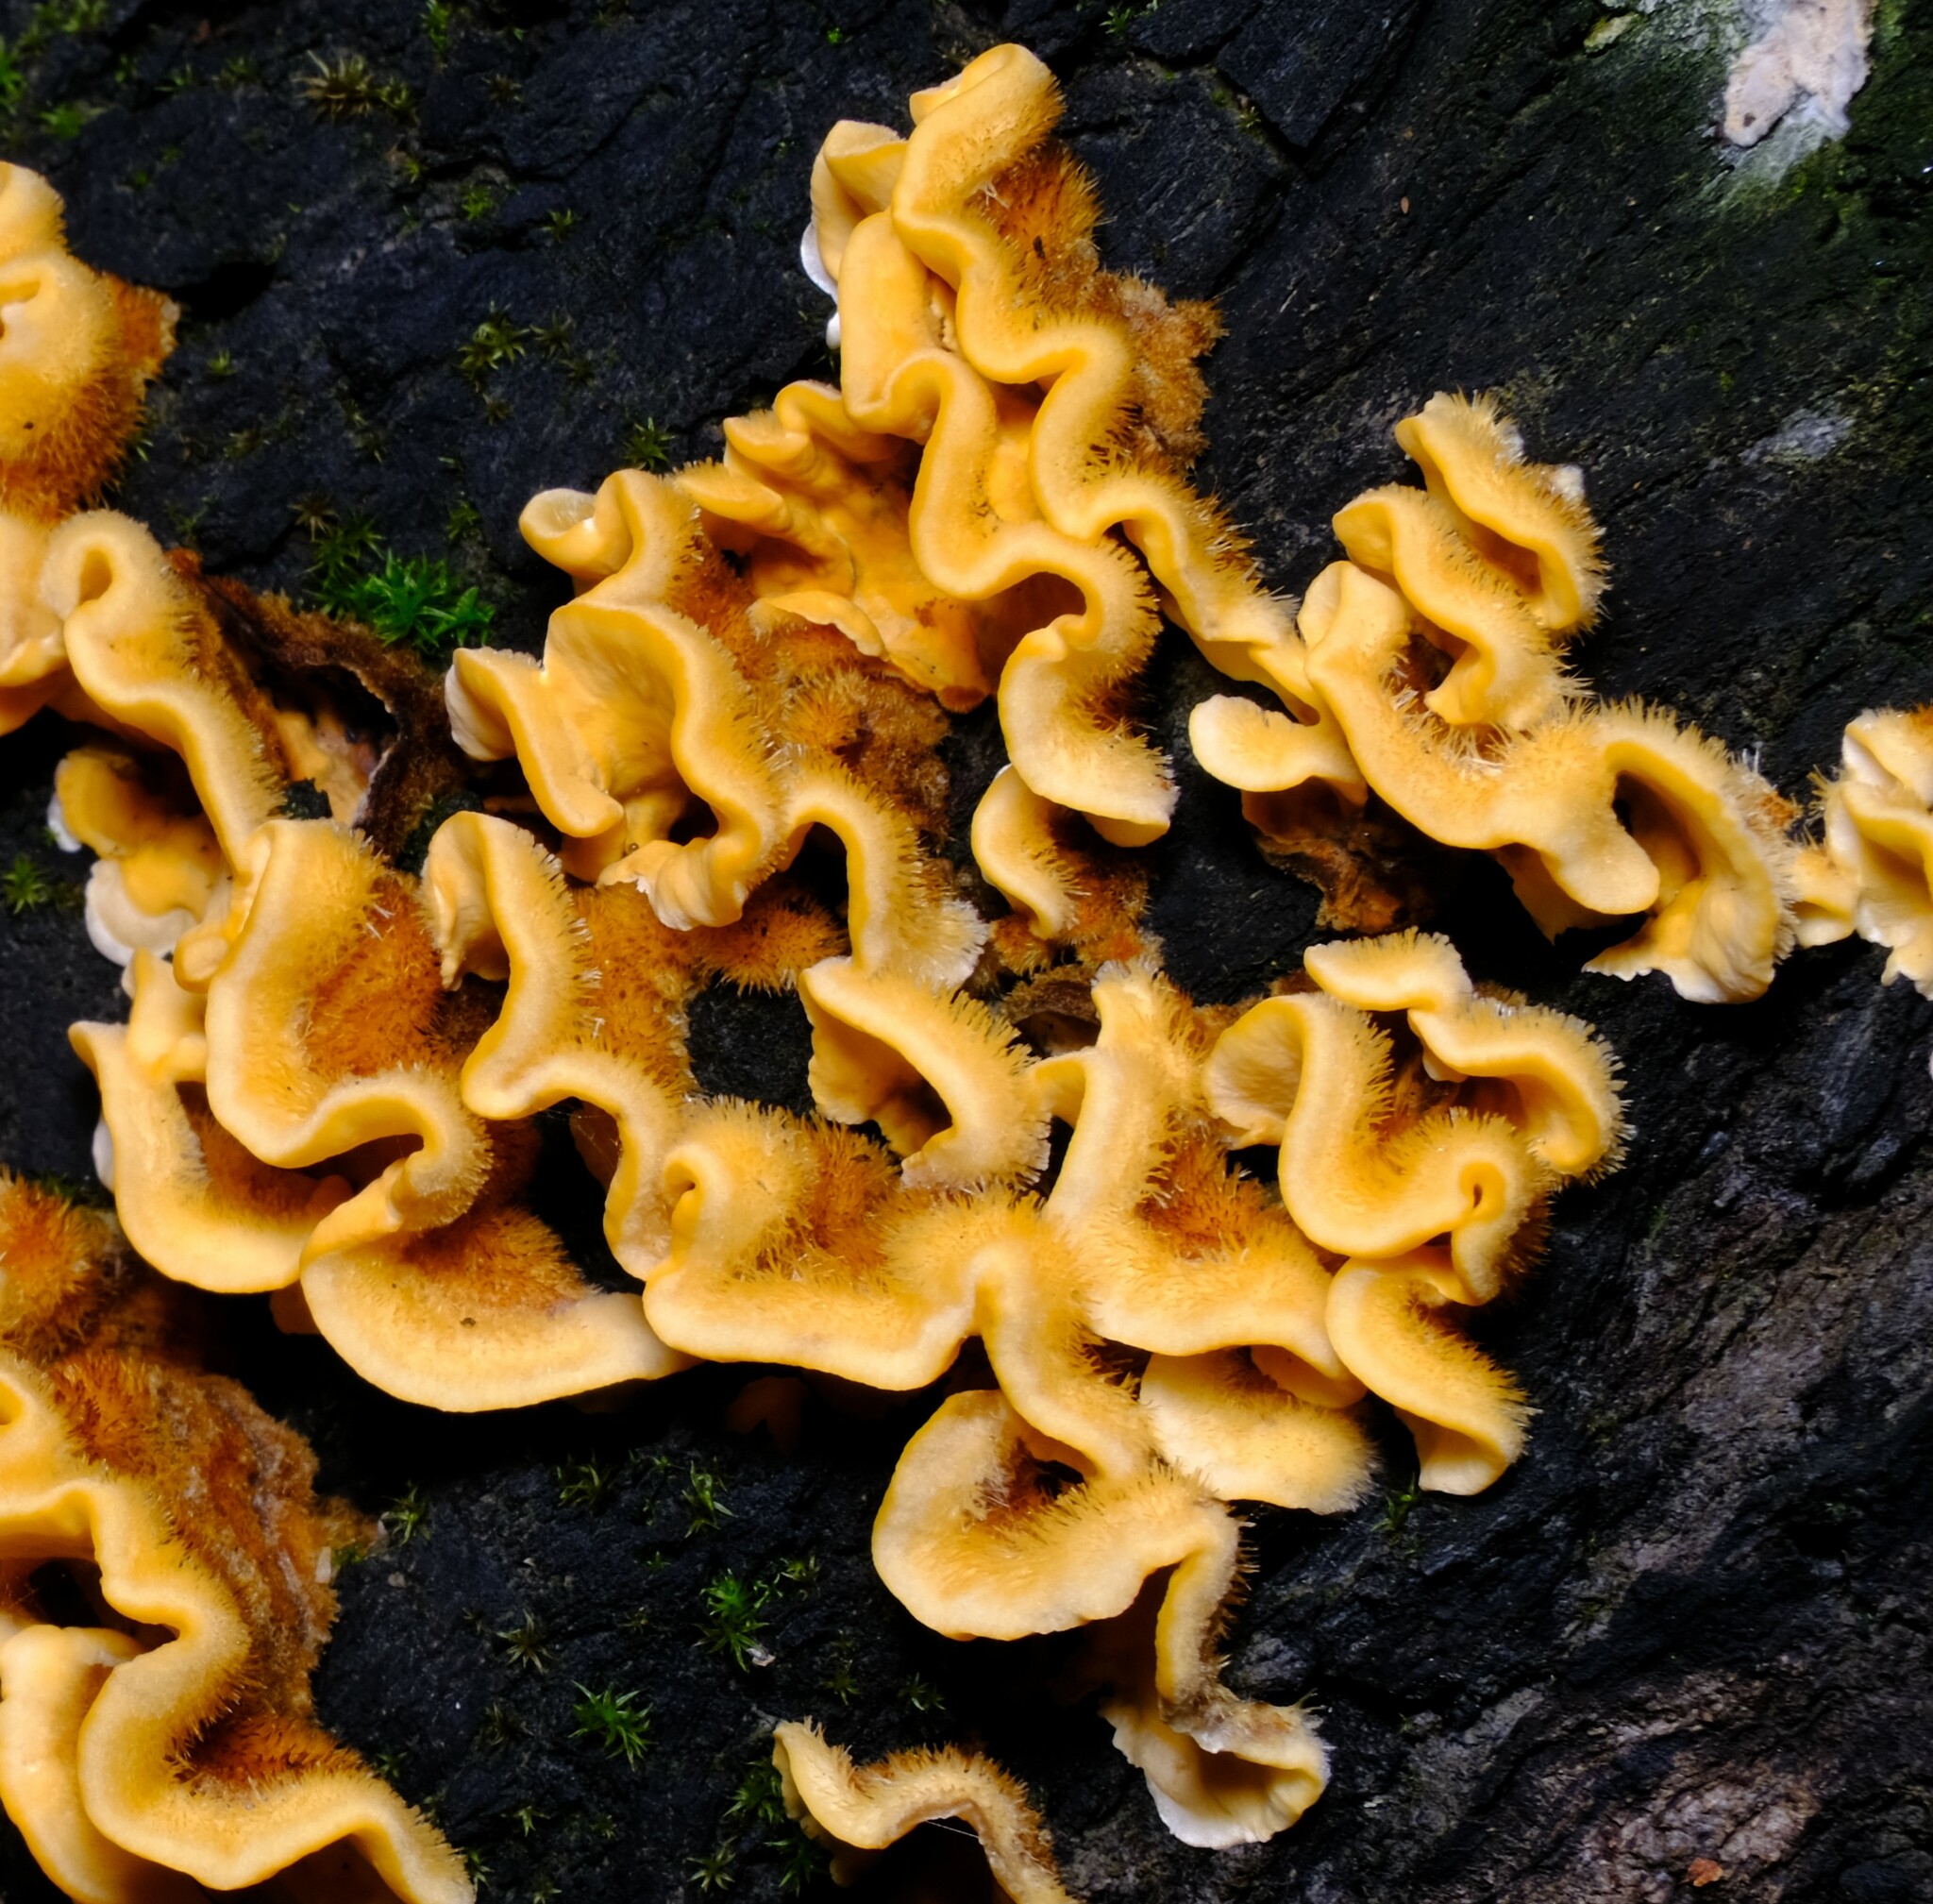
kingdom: Fungi
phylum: Basidiomycota
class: Agaricomycetes
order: Russulales
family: Stereaceae
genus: Stereum
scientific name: Stereum hirsutum
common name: Hairy curtain crust
